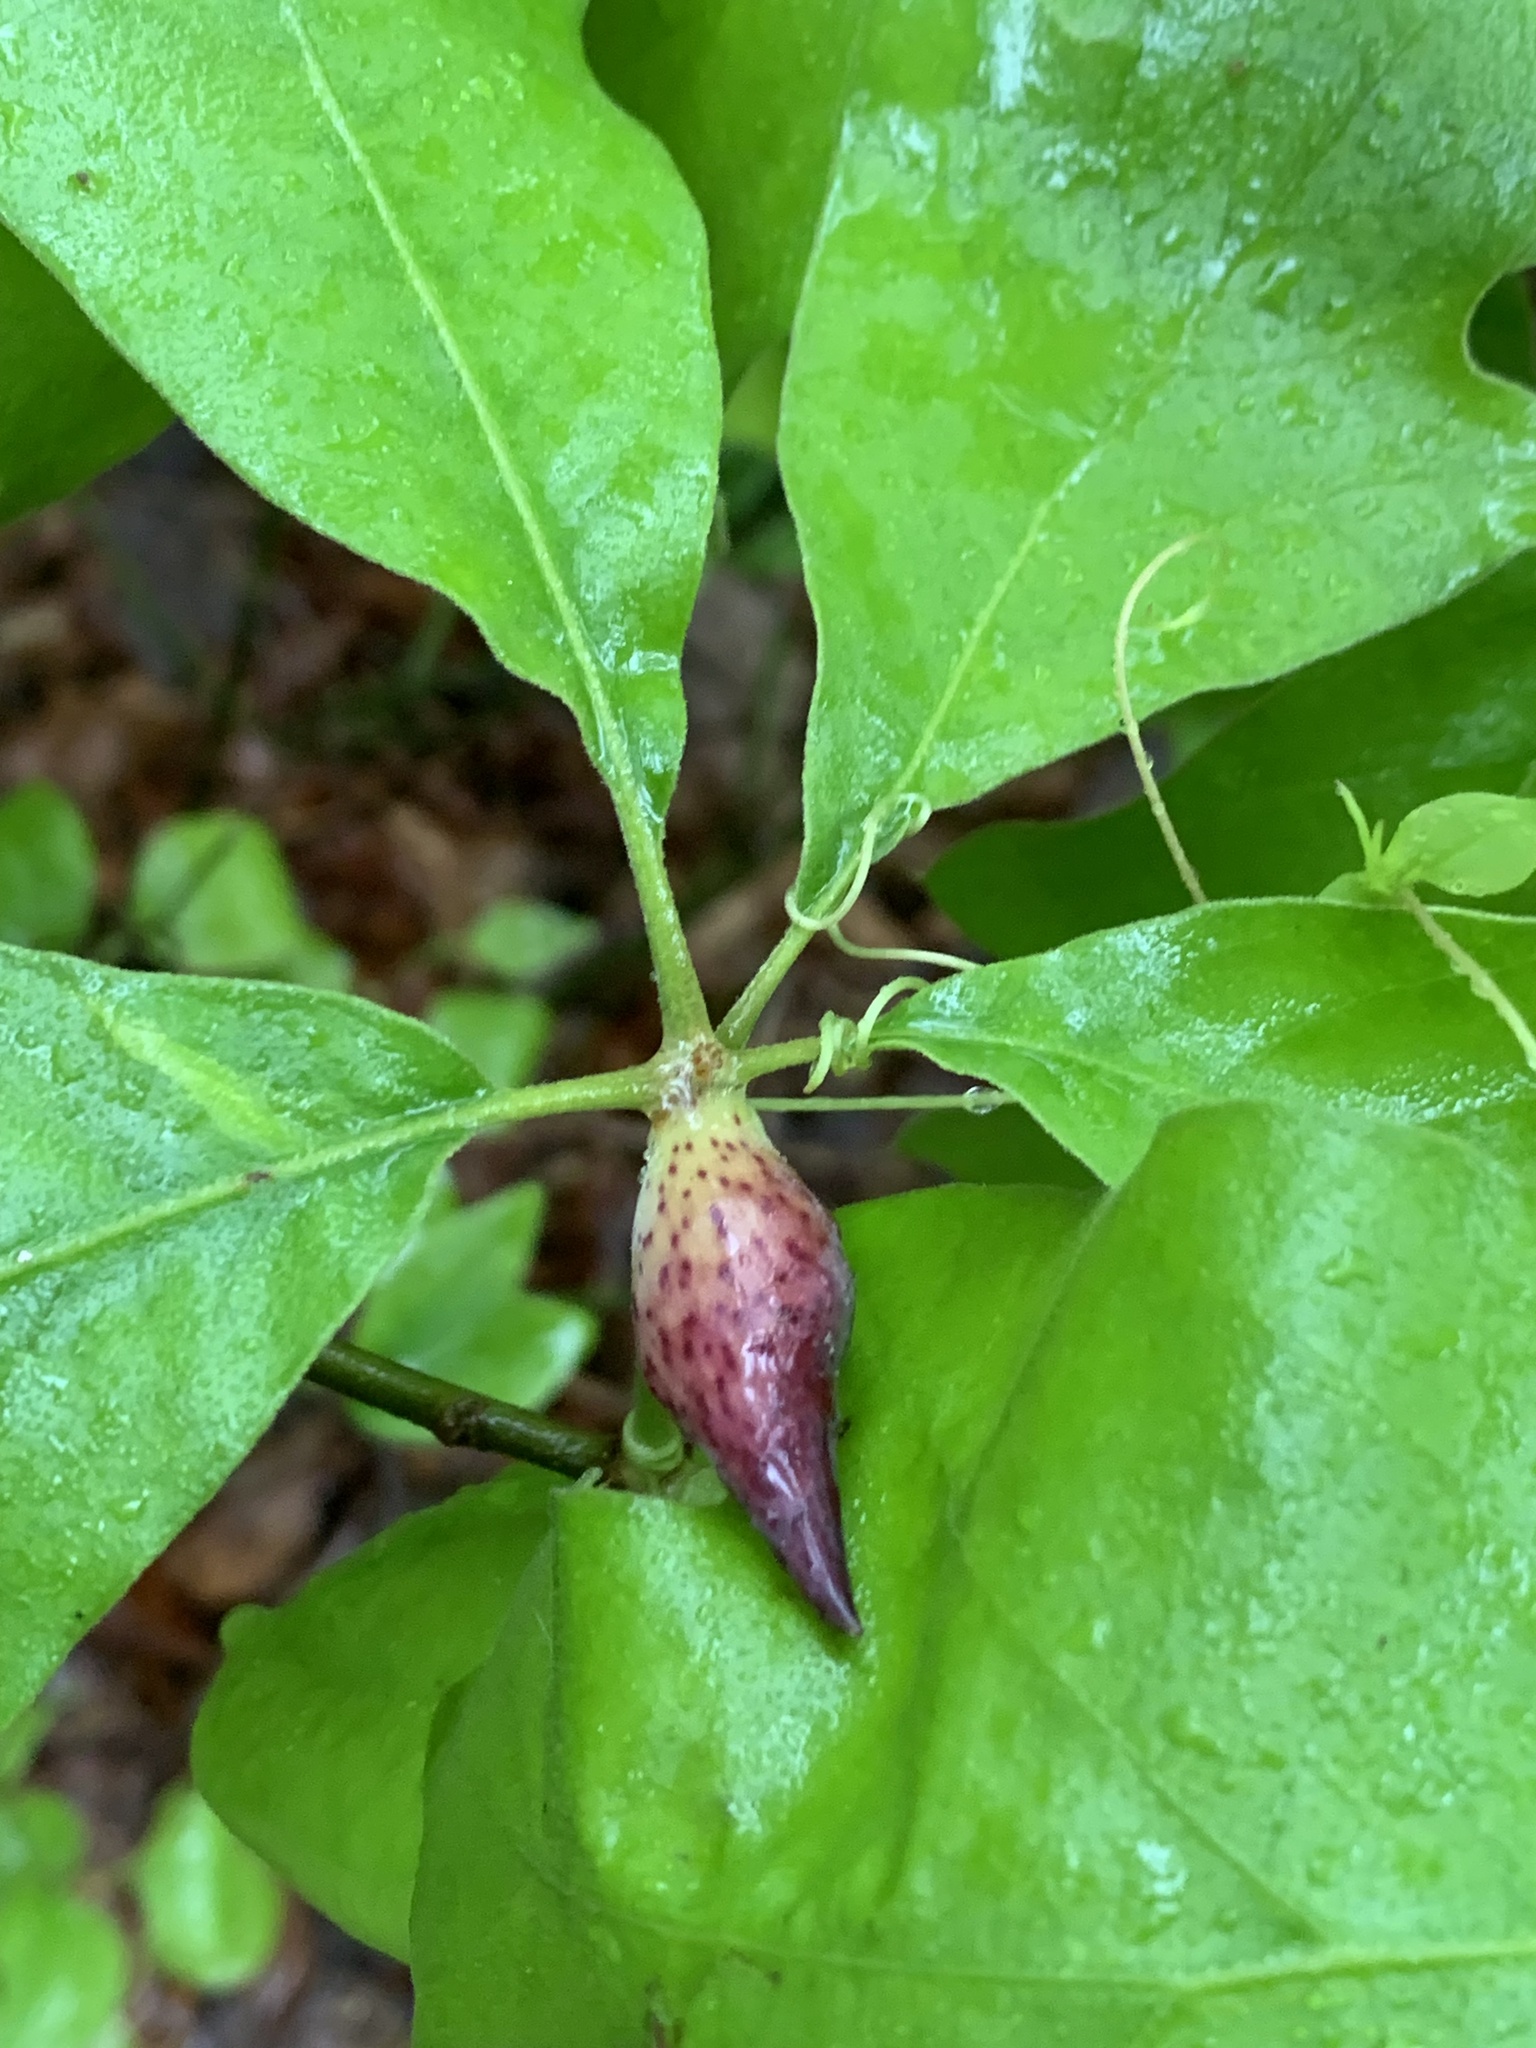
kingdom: Animalia
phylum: Arthropoda
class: Insecta
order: Hymenoptera
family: Cynipidae
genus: Amphibolips
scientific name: Amphibolips
